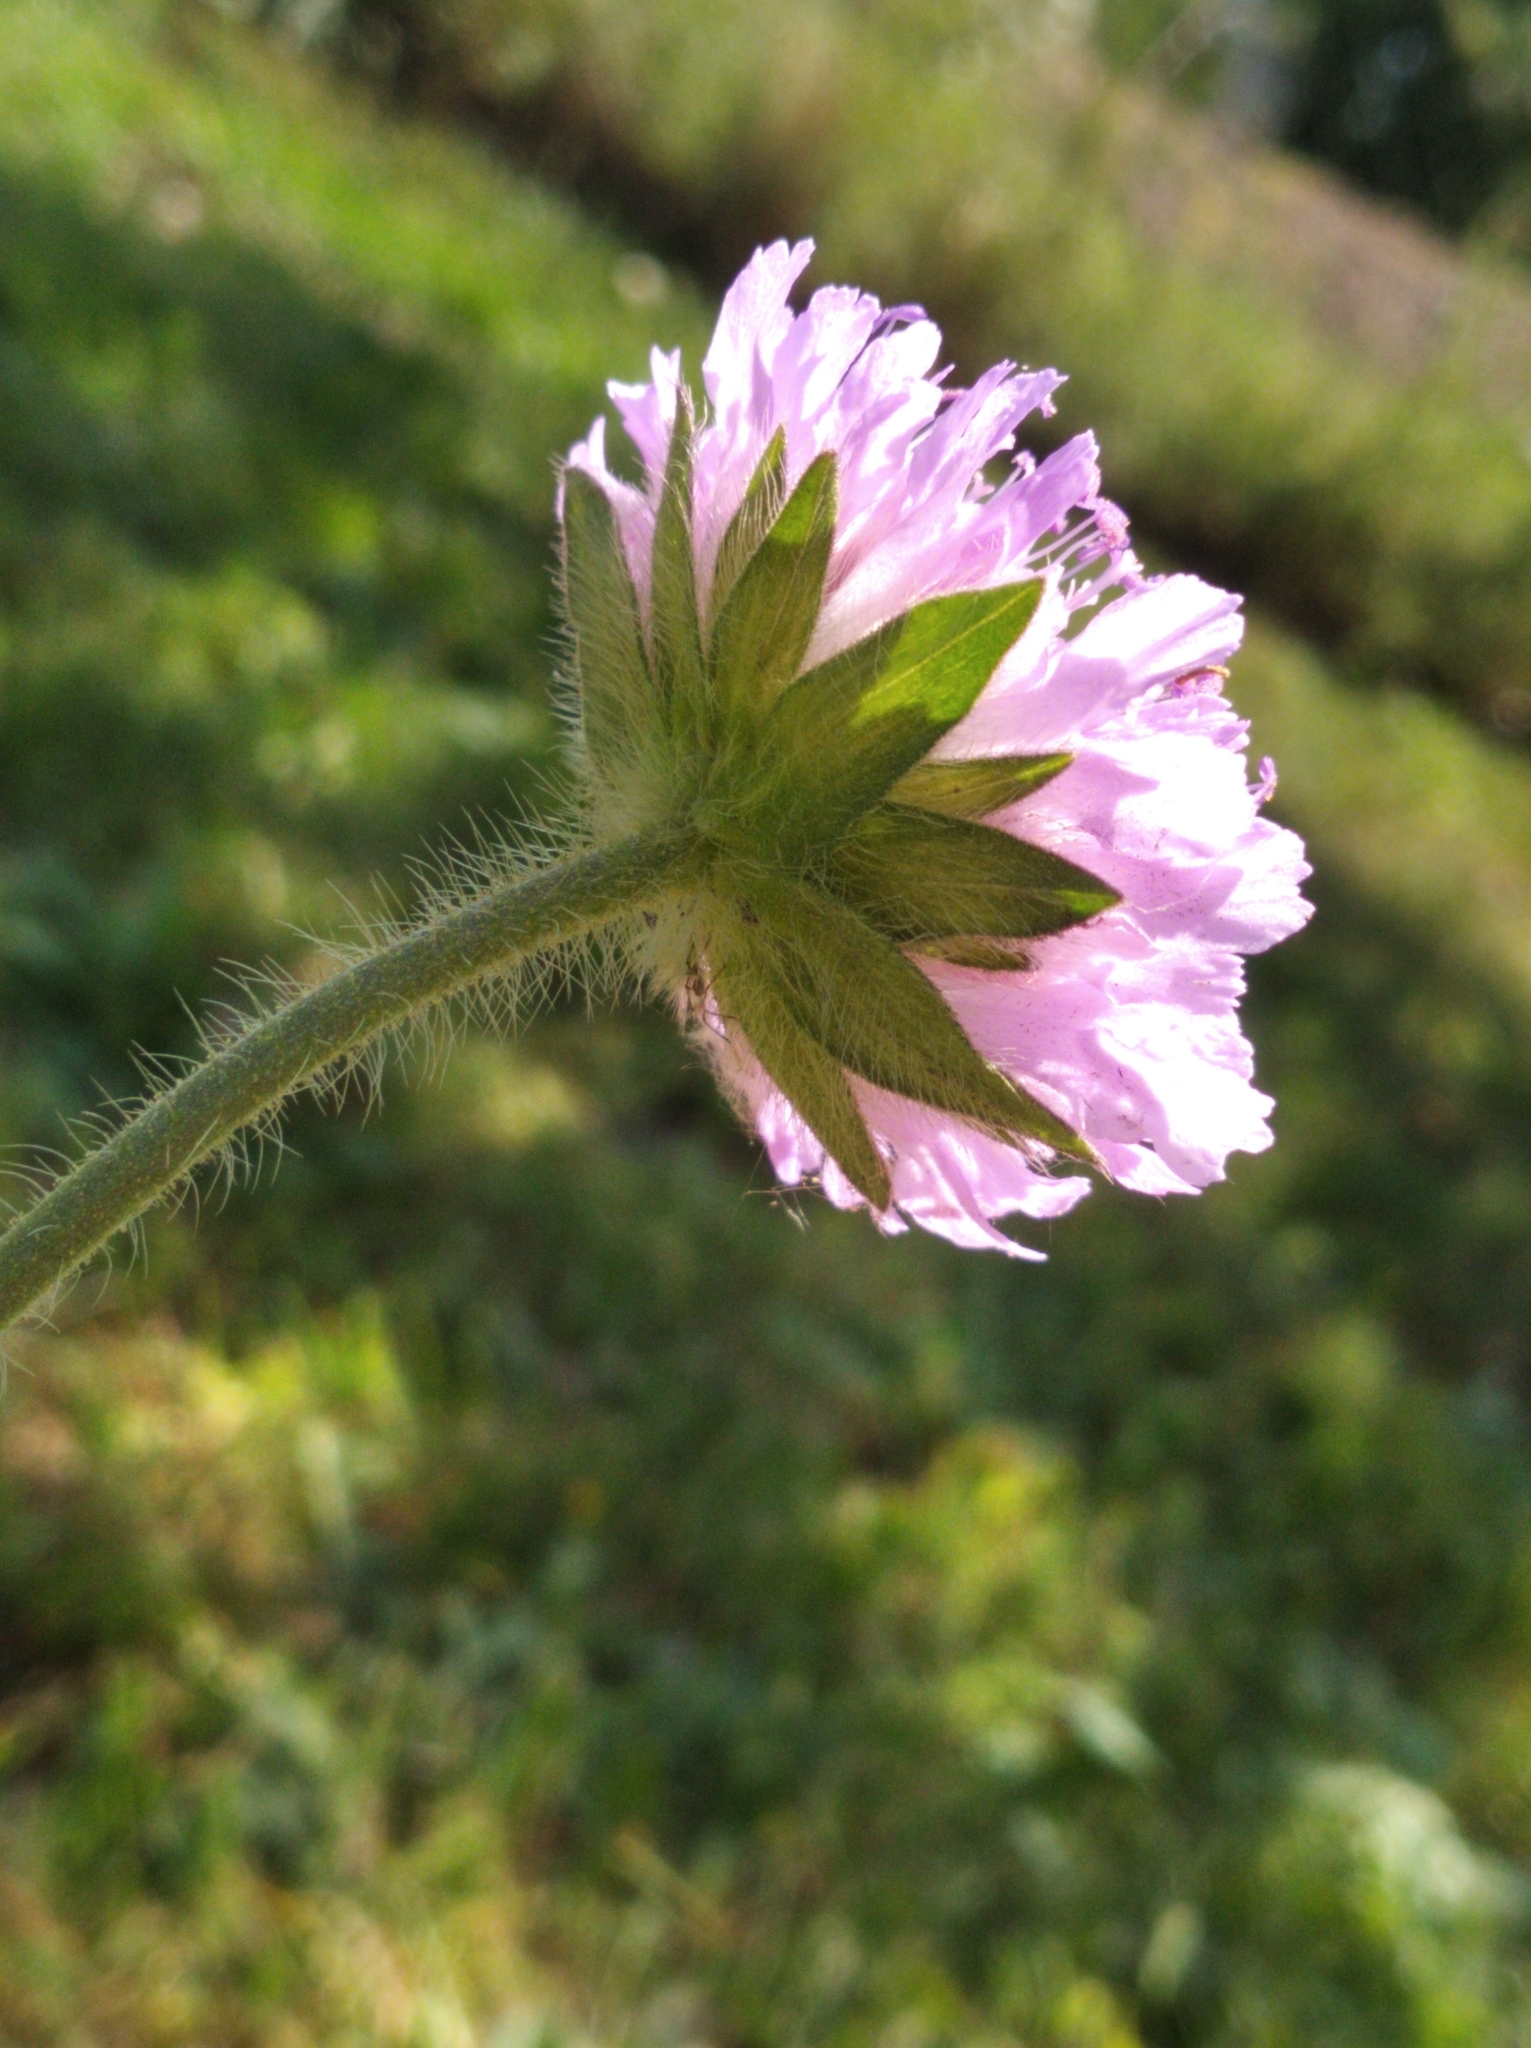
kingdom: Plantae
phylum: Tracheophyta
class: Magnoliopsida
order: Dipsacales
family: Caprifoliaceae
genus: Knautia
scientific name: Knautia arvensis
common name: Field scabiosa
